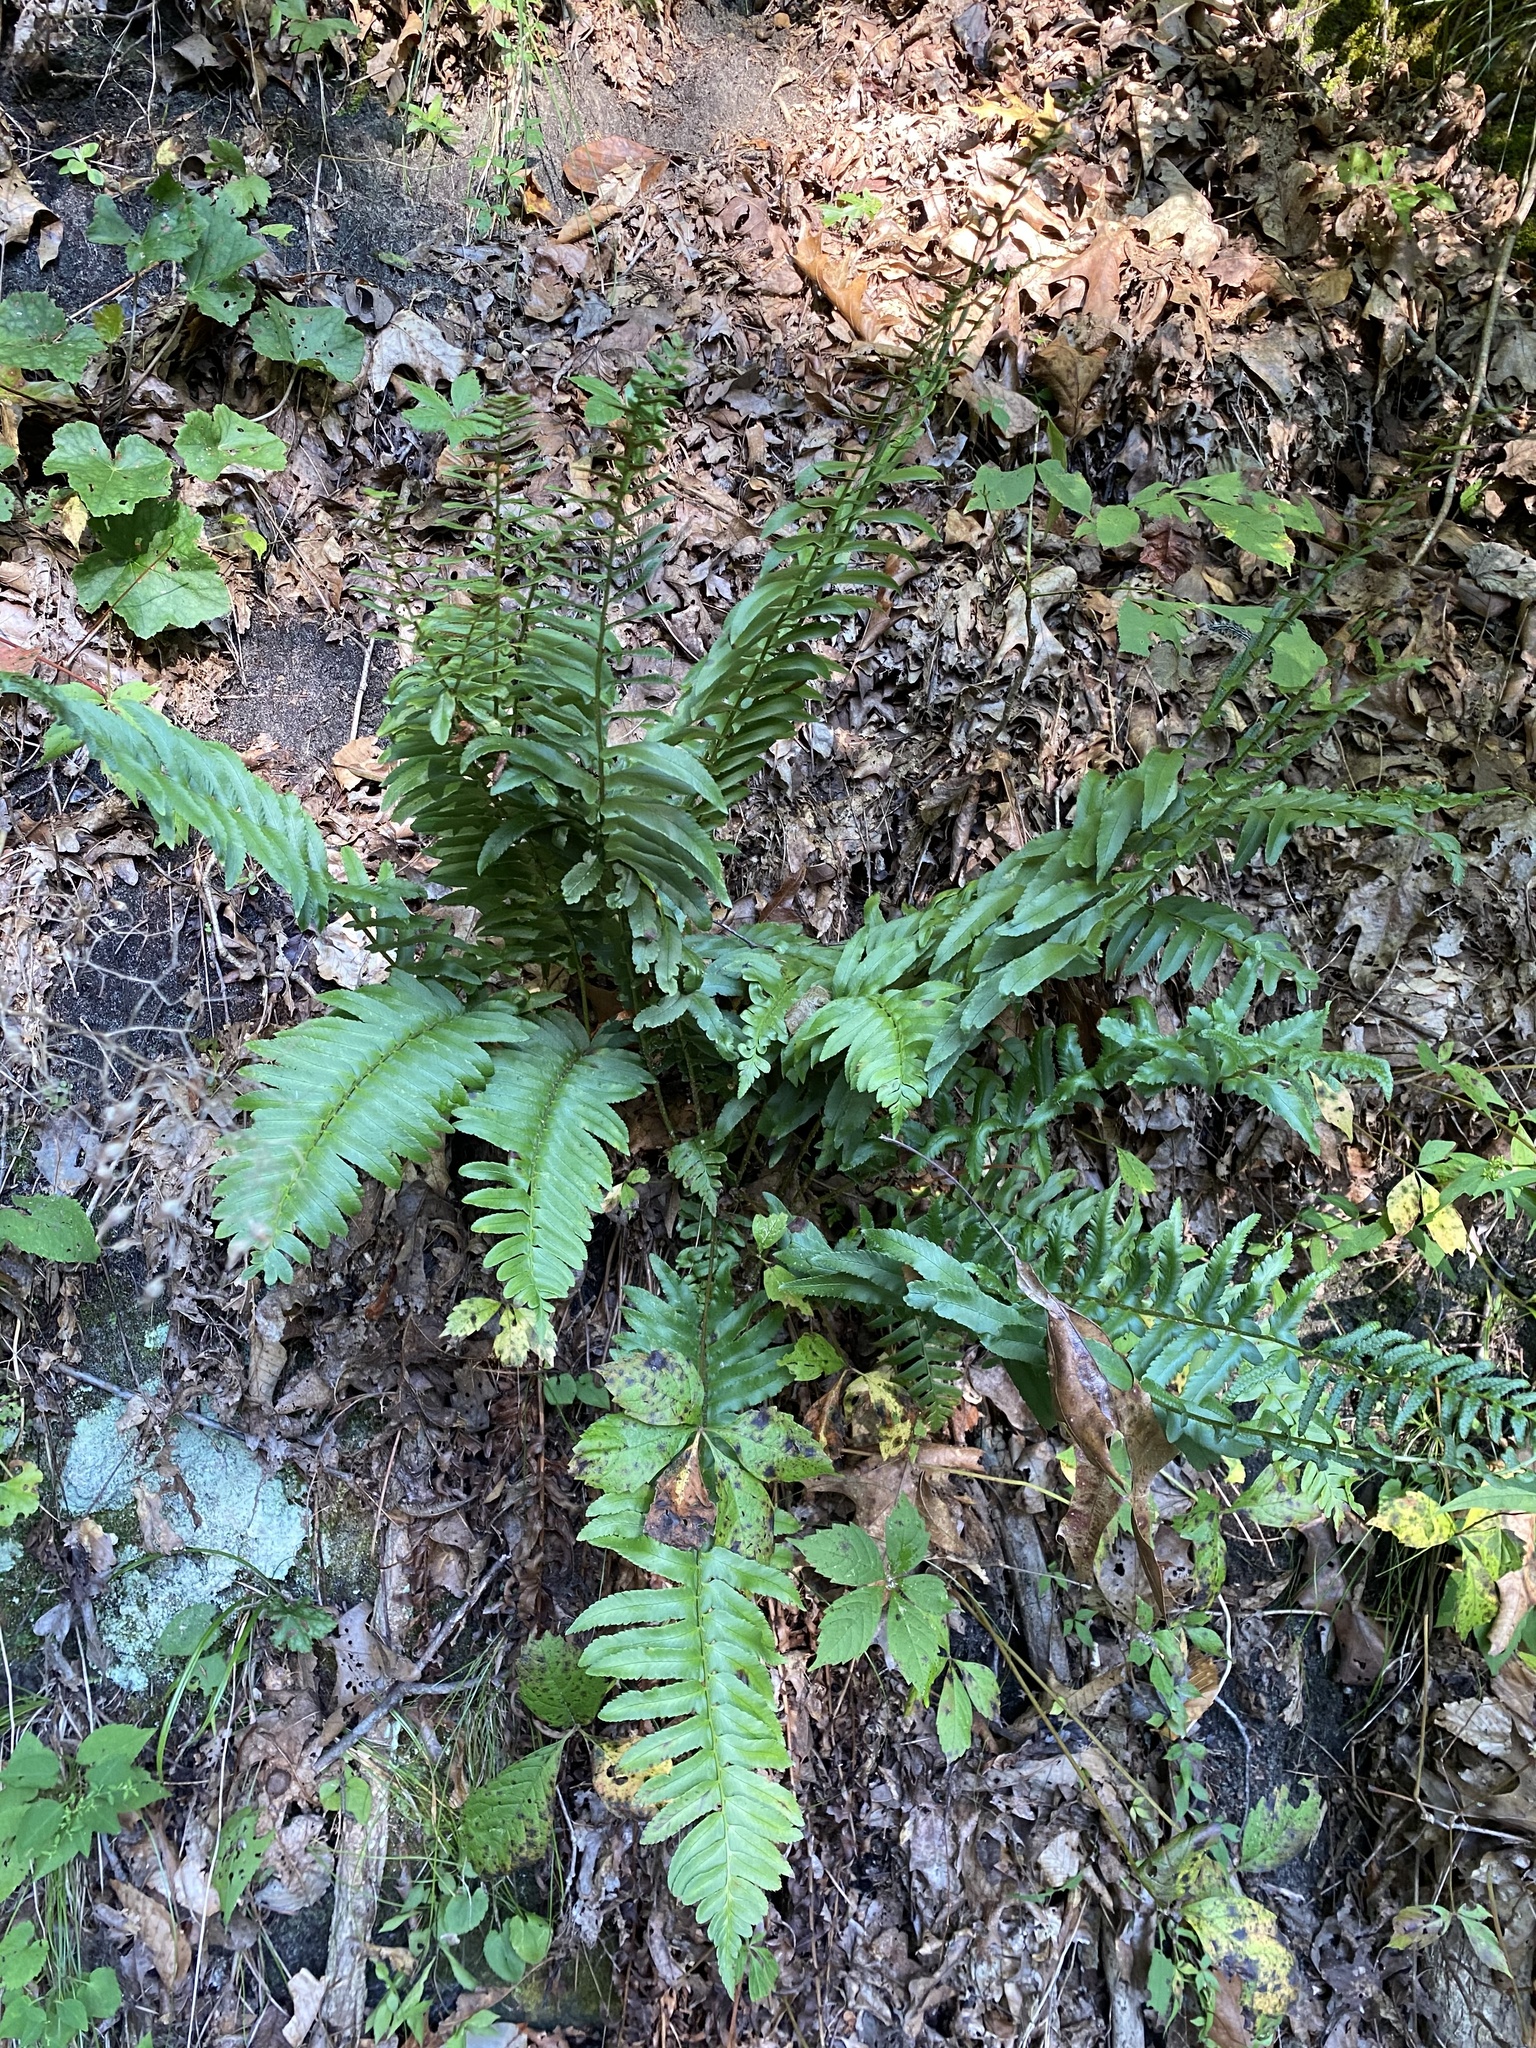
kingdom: Plantae
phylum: Tracheophyta
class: Polypodiopsida
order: Polypodiales
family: Dryopteridaceae
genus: Polystichum
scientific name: Polystichum acrostichoides
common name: Christmas fern
